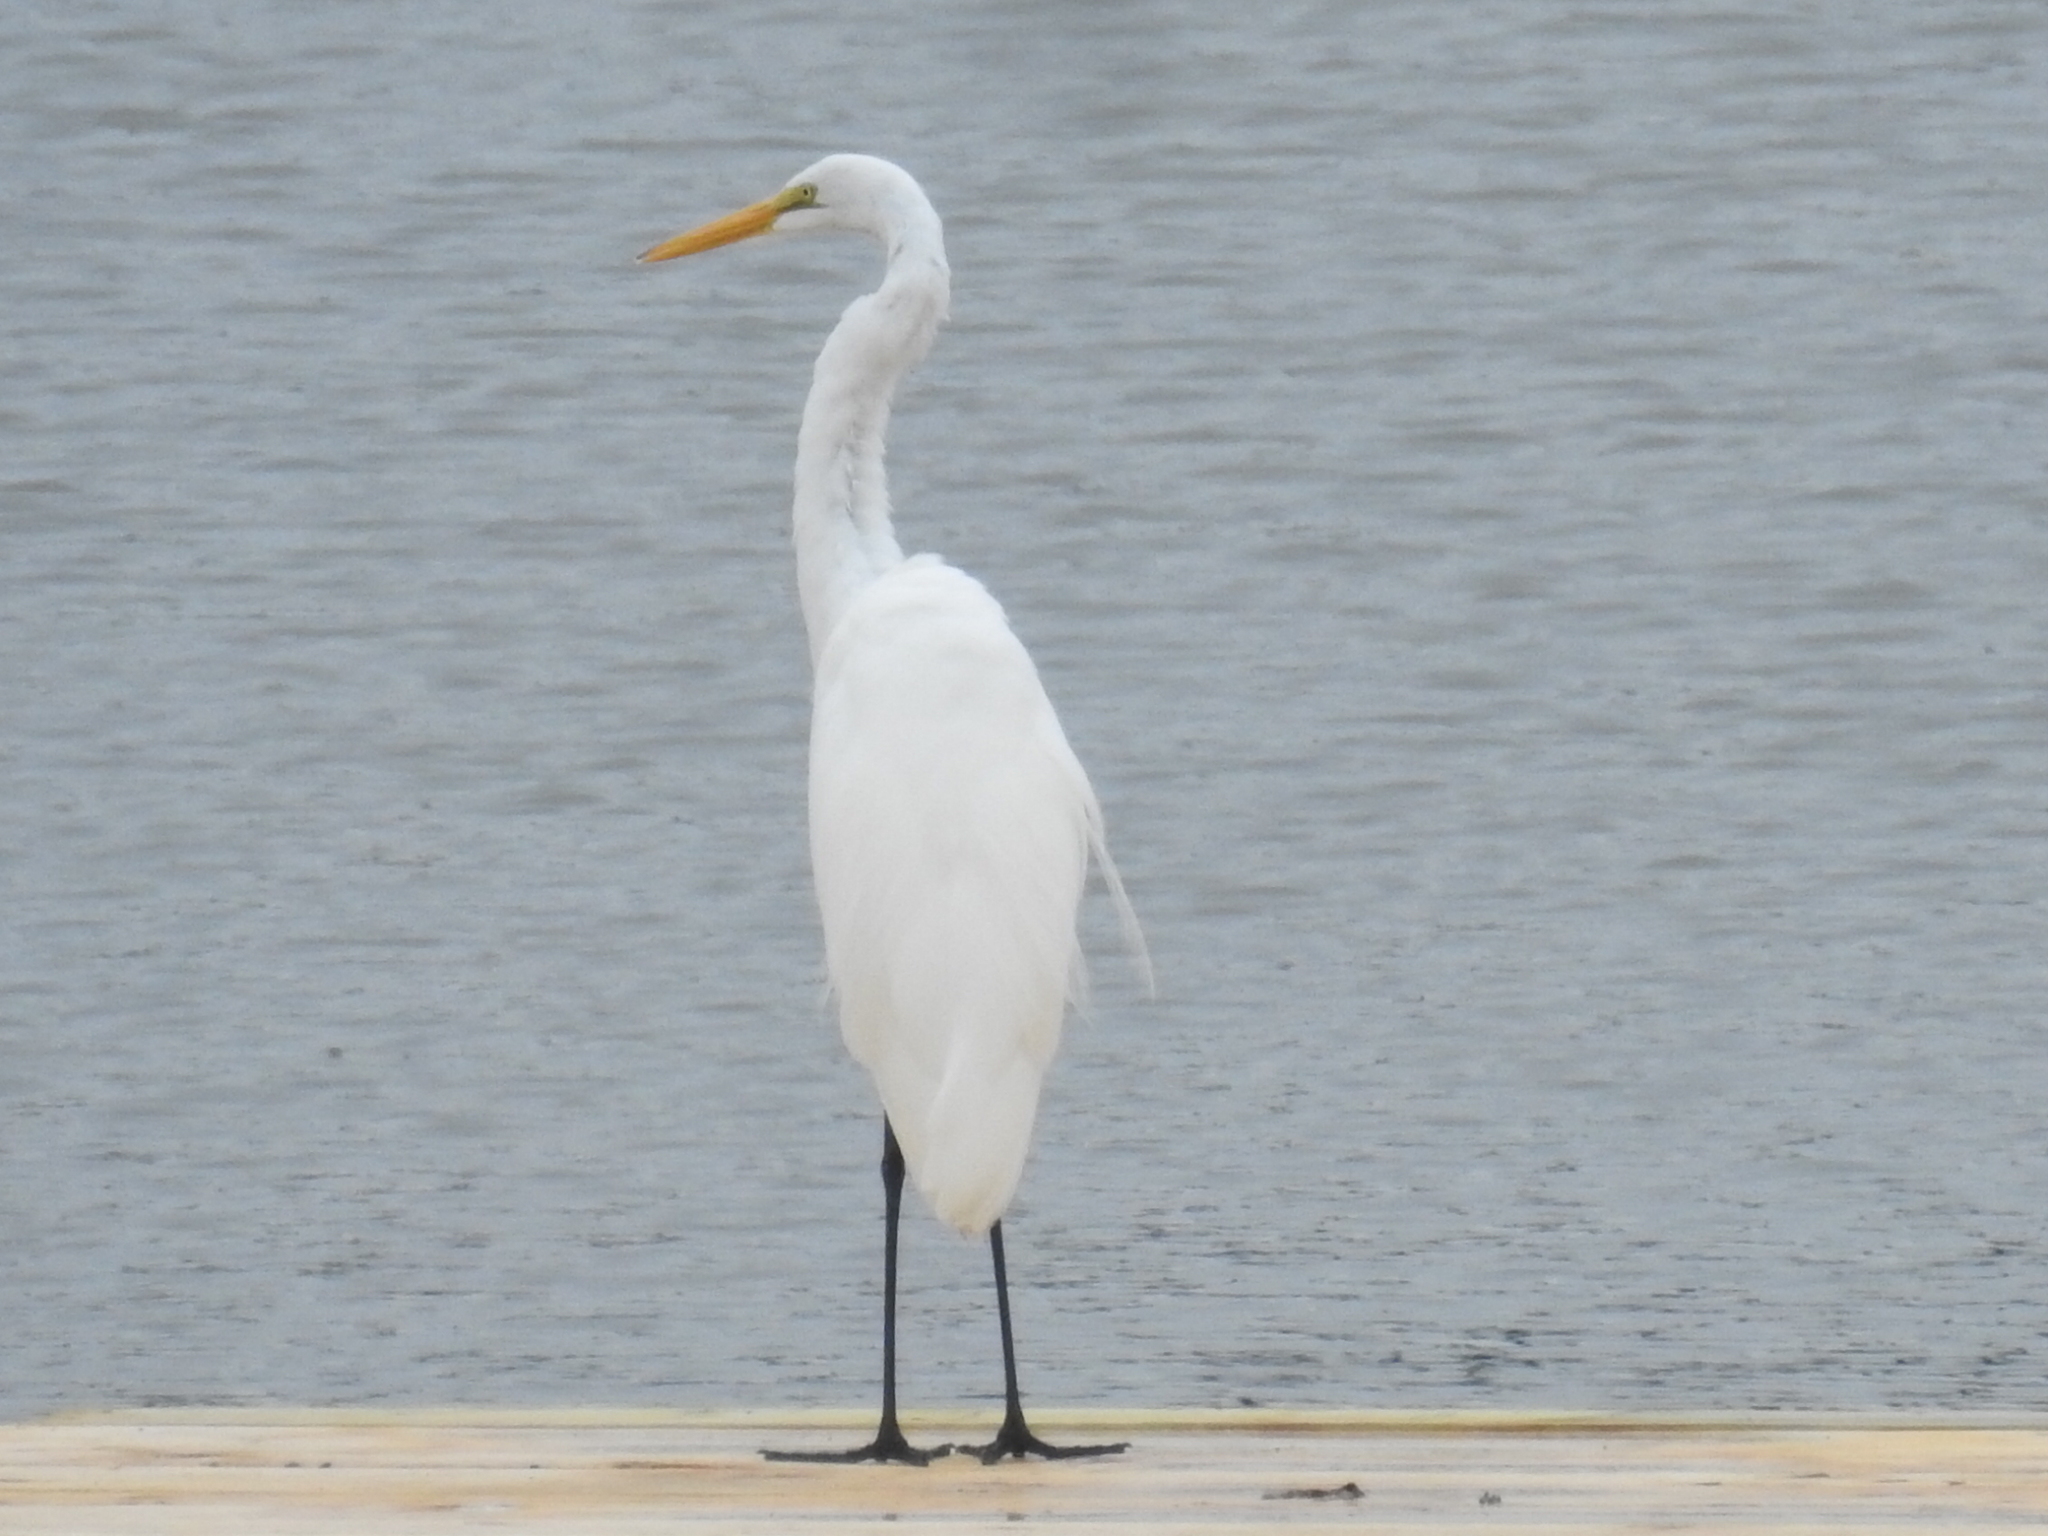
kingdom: Animalia
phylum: Chordata
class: Aves
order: Pelecaniformes
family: Ardeidae
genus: Ardea
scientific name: Ardea alba
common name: Great egret
